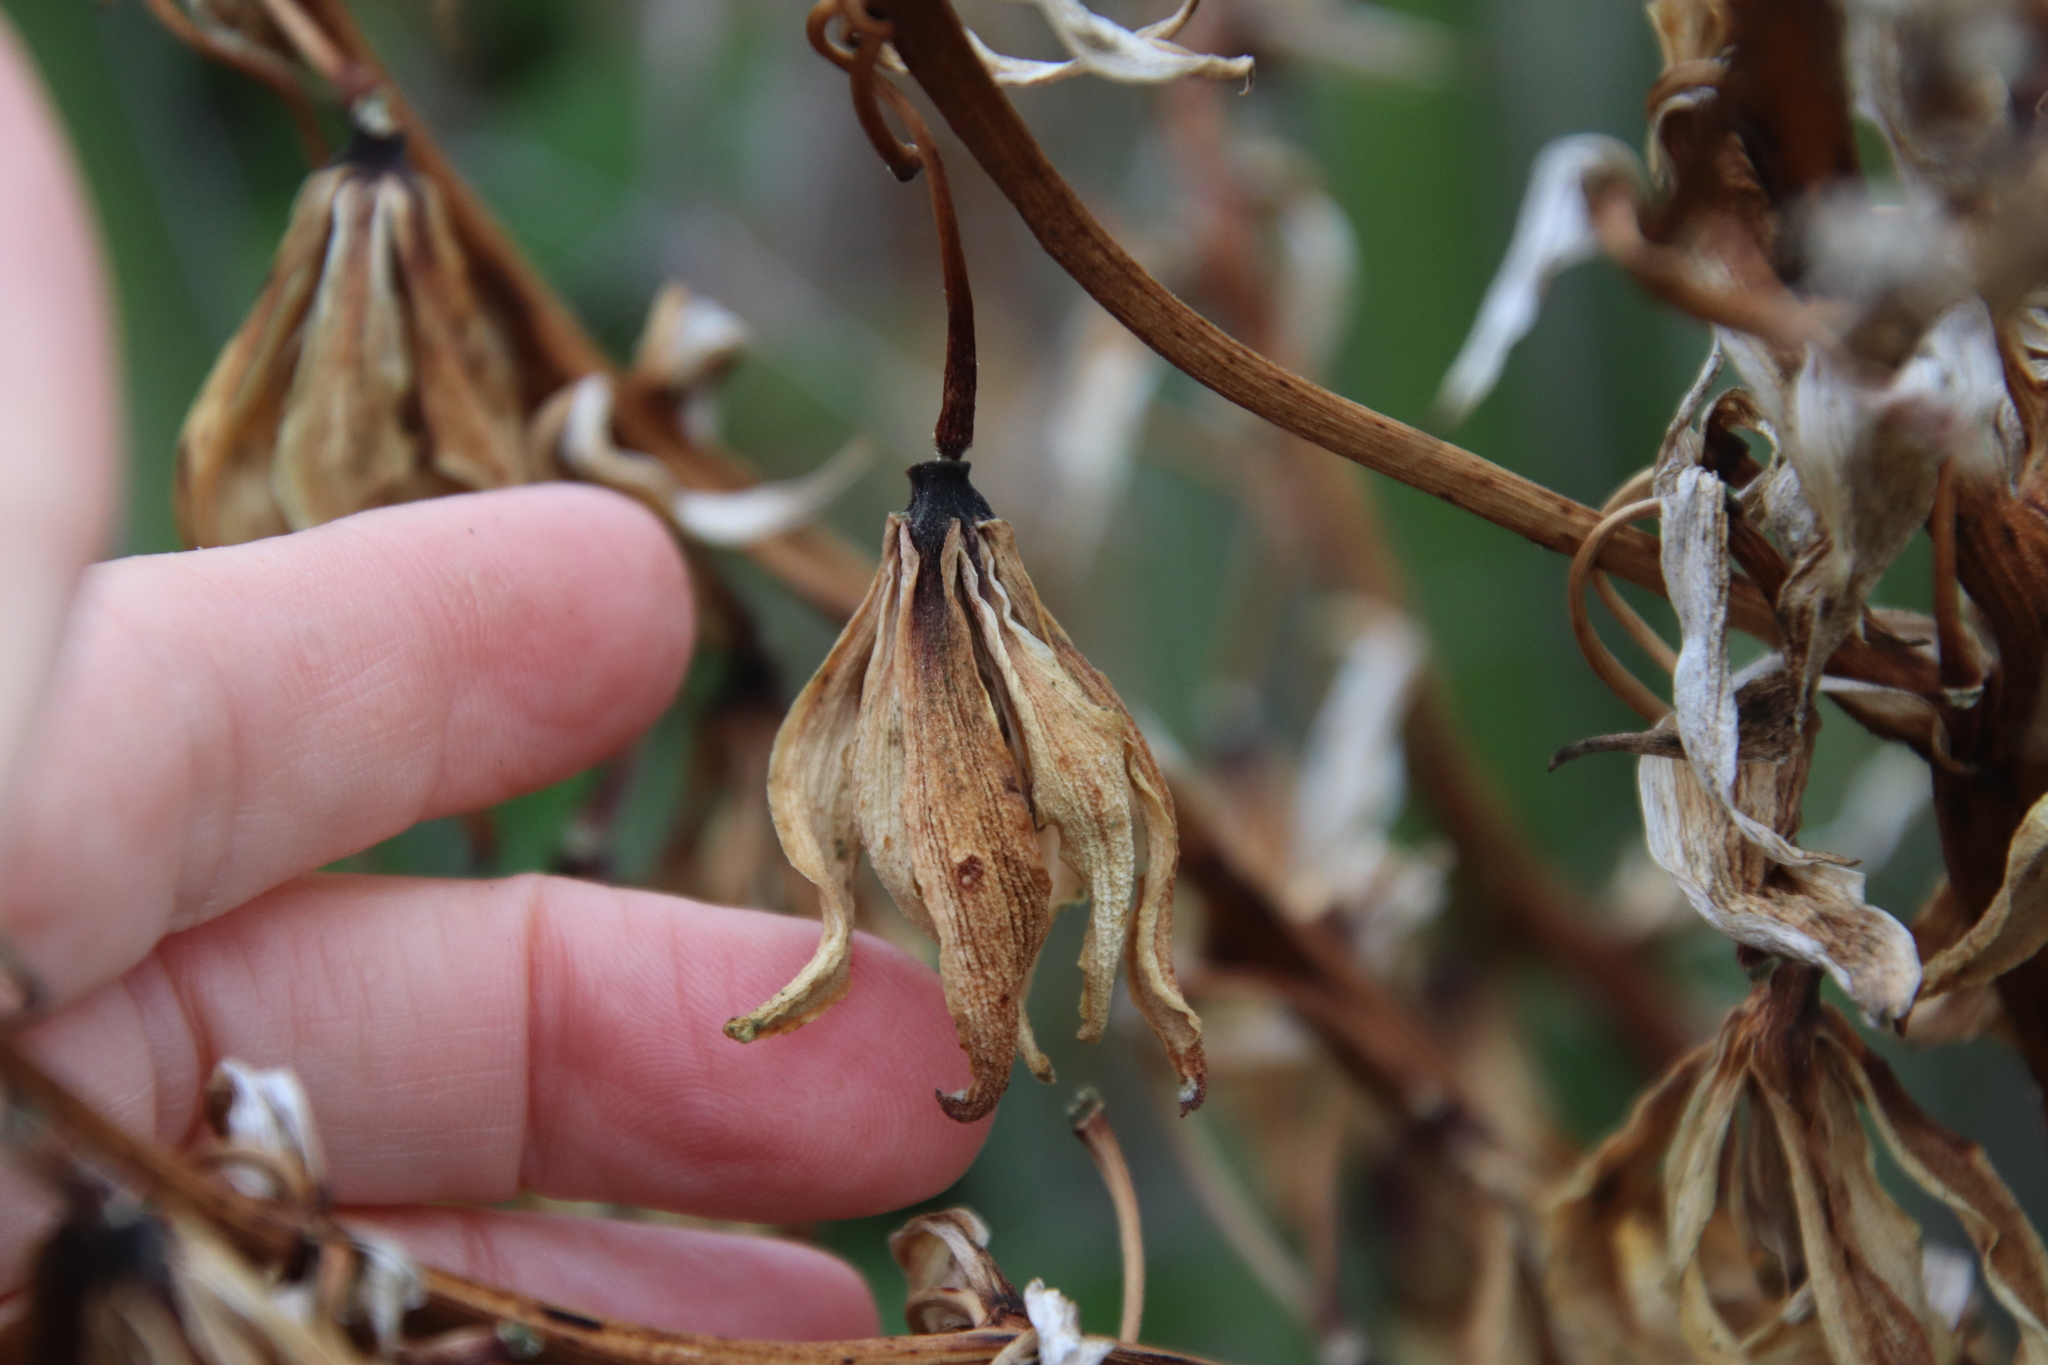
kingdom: Plantae
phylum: Tracheophyta
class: Liliopsida
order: Asparagales
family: Asparagaceae
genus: Yucca
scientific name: Yucca schidigera
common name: Mojave yucca
